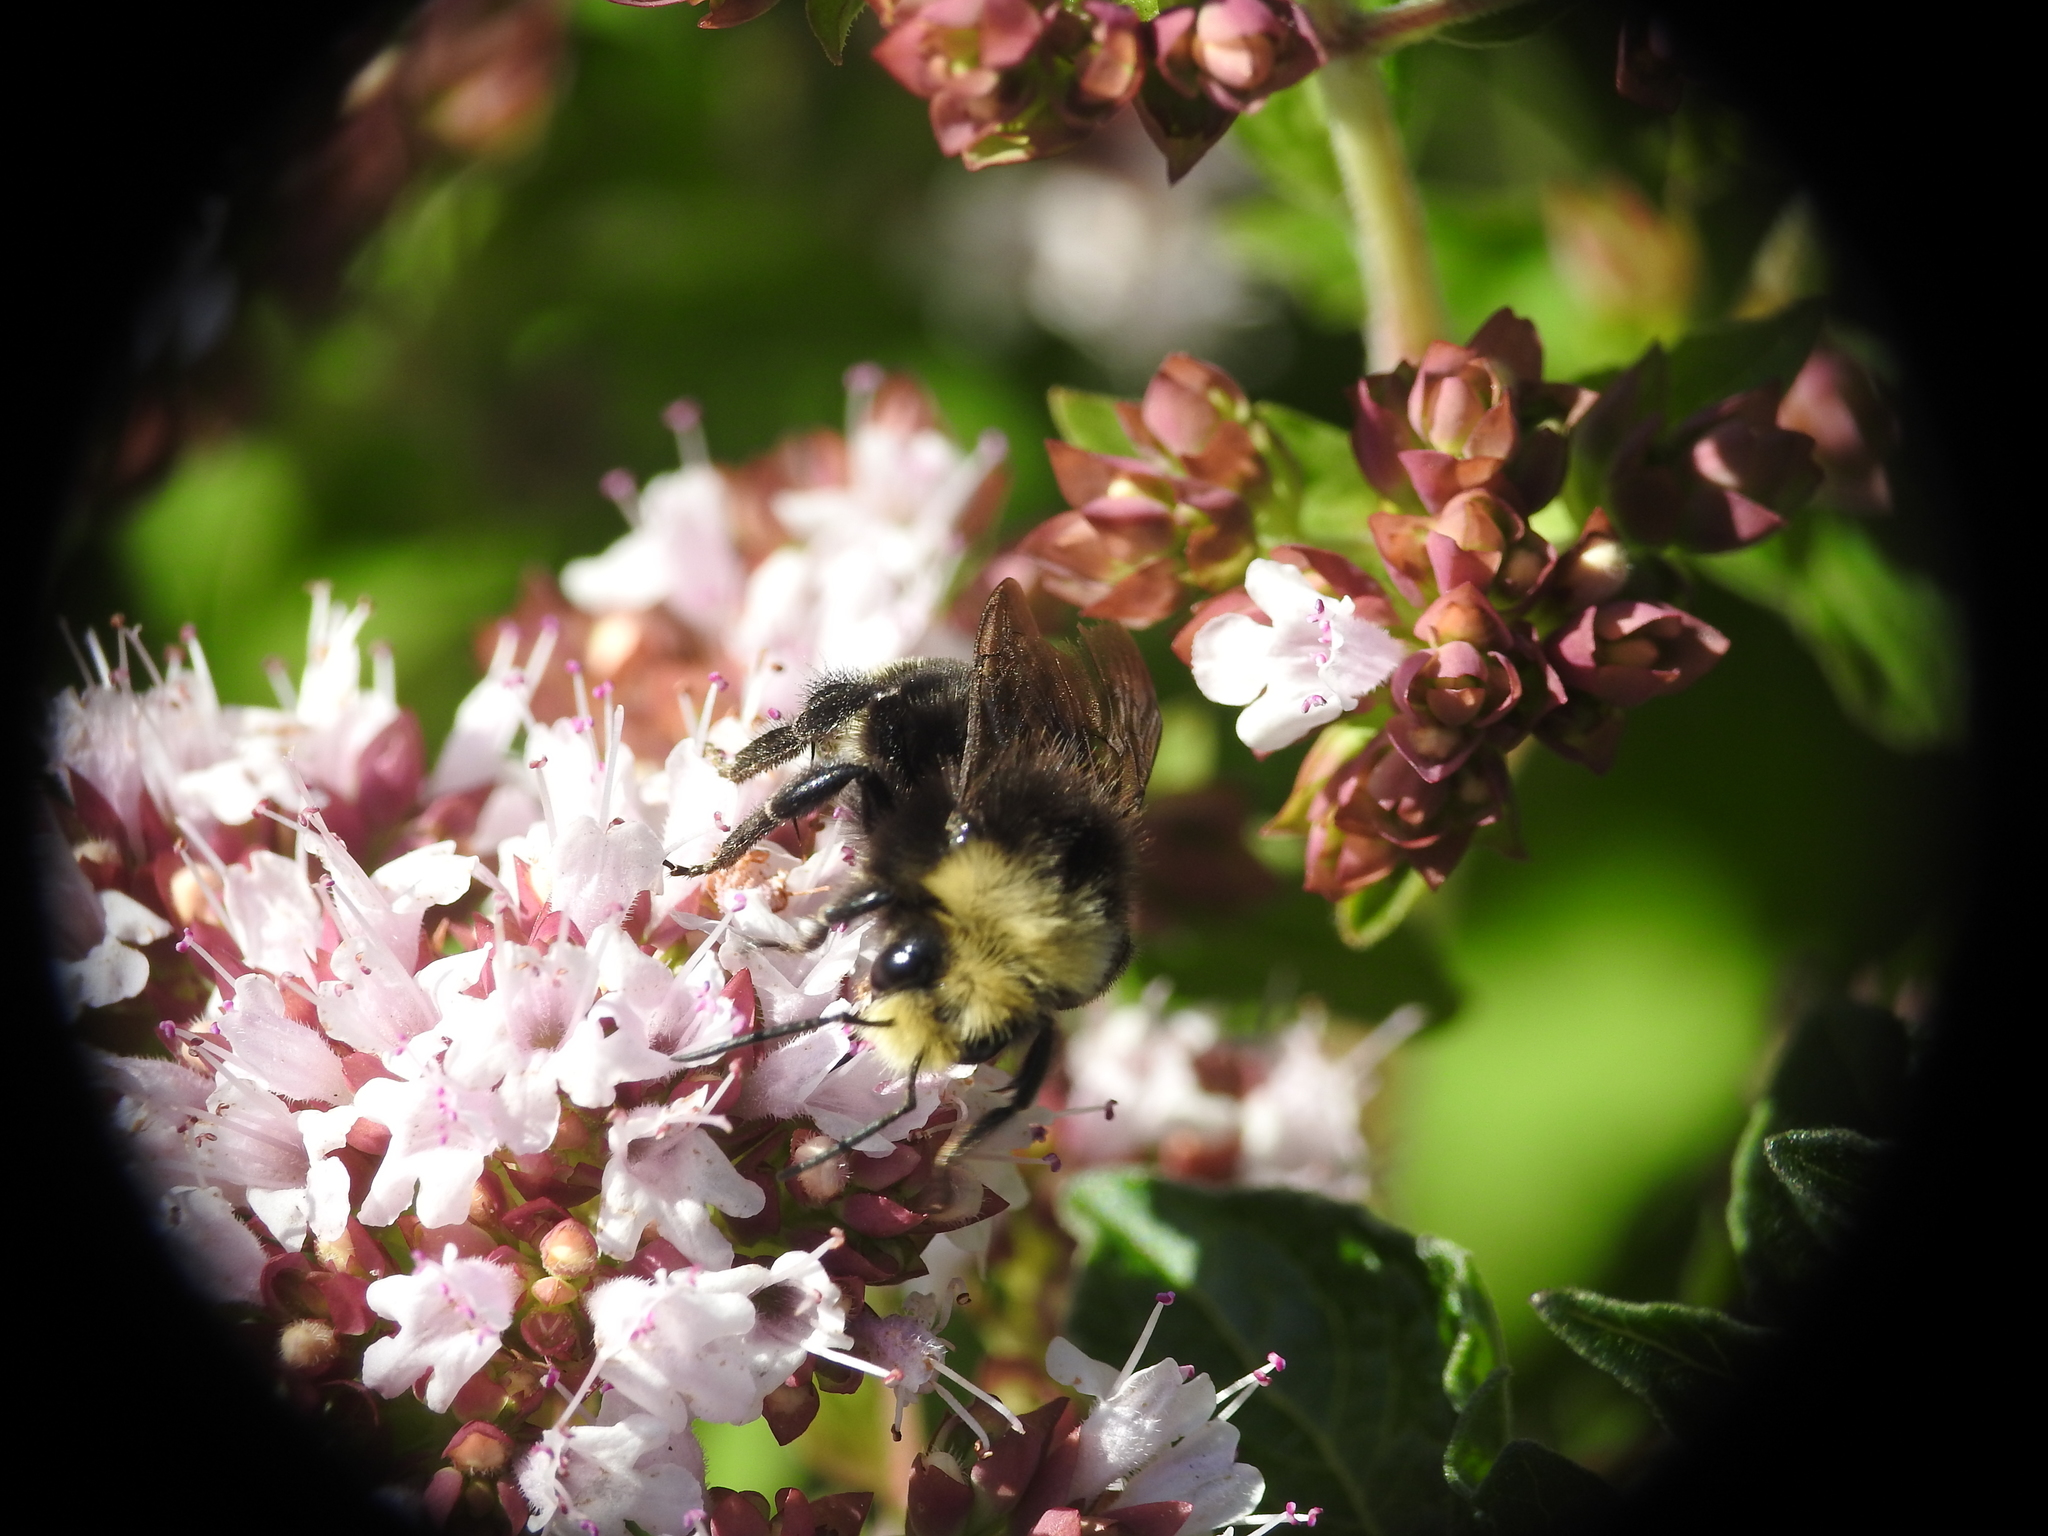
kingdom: Animalia
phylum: Arthropoda
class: Insecta
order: Hymenoptera
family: Apidae
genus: Bombus
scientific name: Bombus vosnesenskii
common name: Vosnesensky bumble bee
